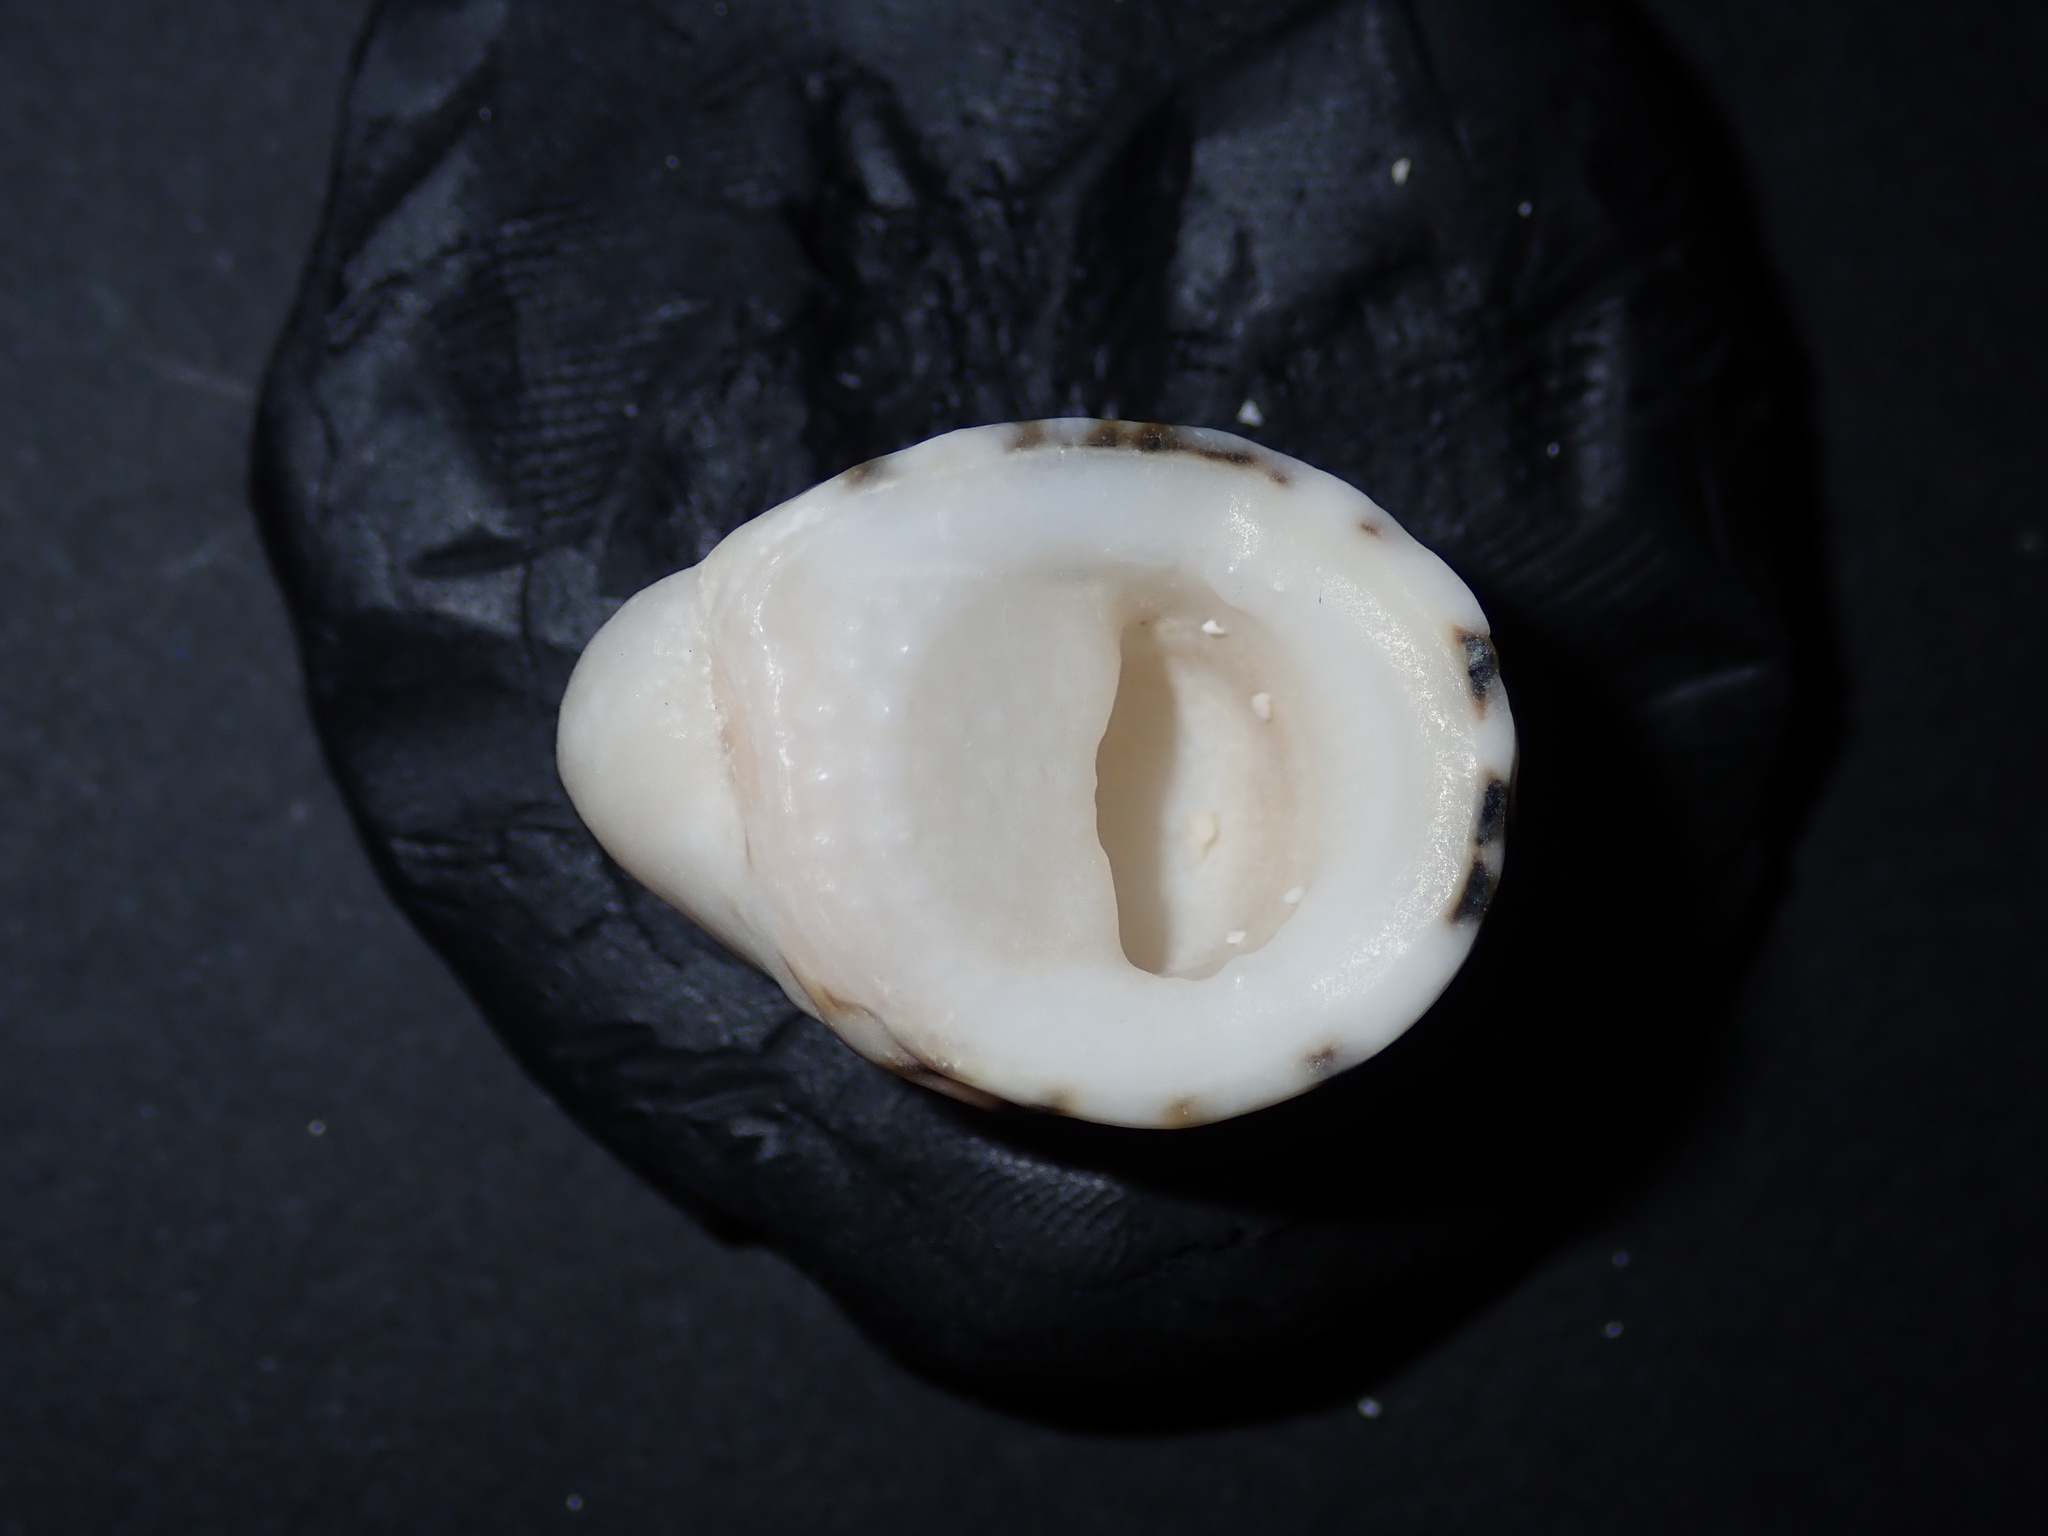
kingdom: Animalia
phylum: Mollusca
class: Gastropoda
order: Cycloneritida
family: Neritidae
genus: Nerita
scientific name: Nerita albicilla
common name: Blotched nerite
